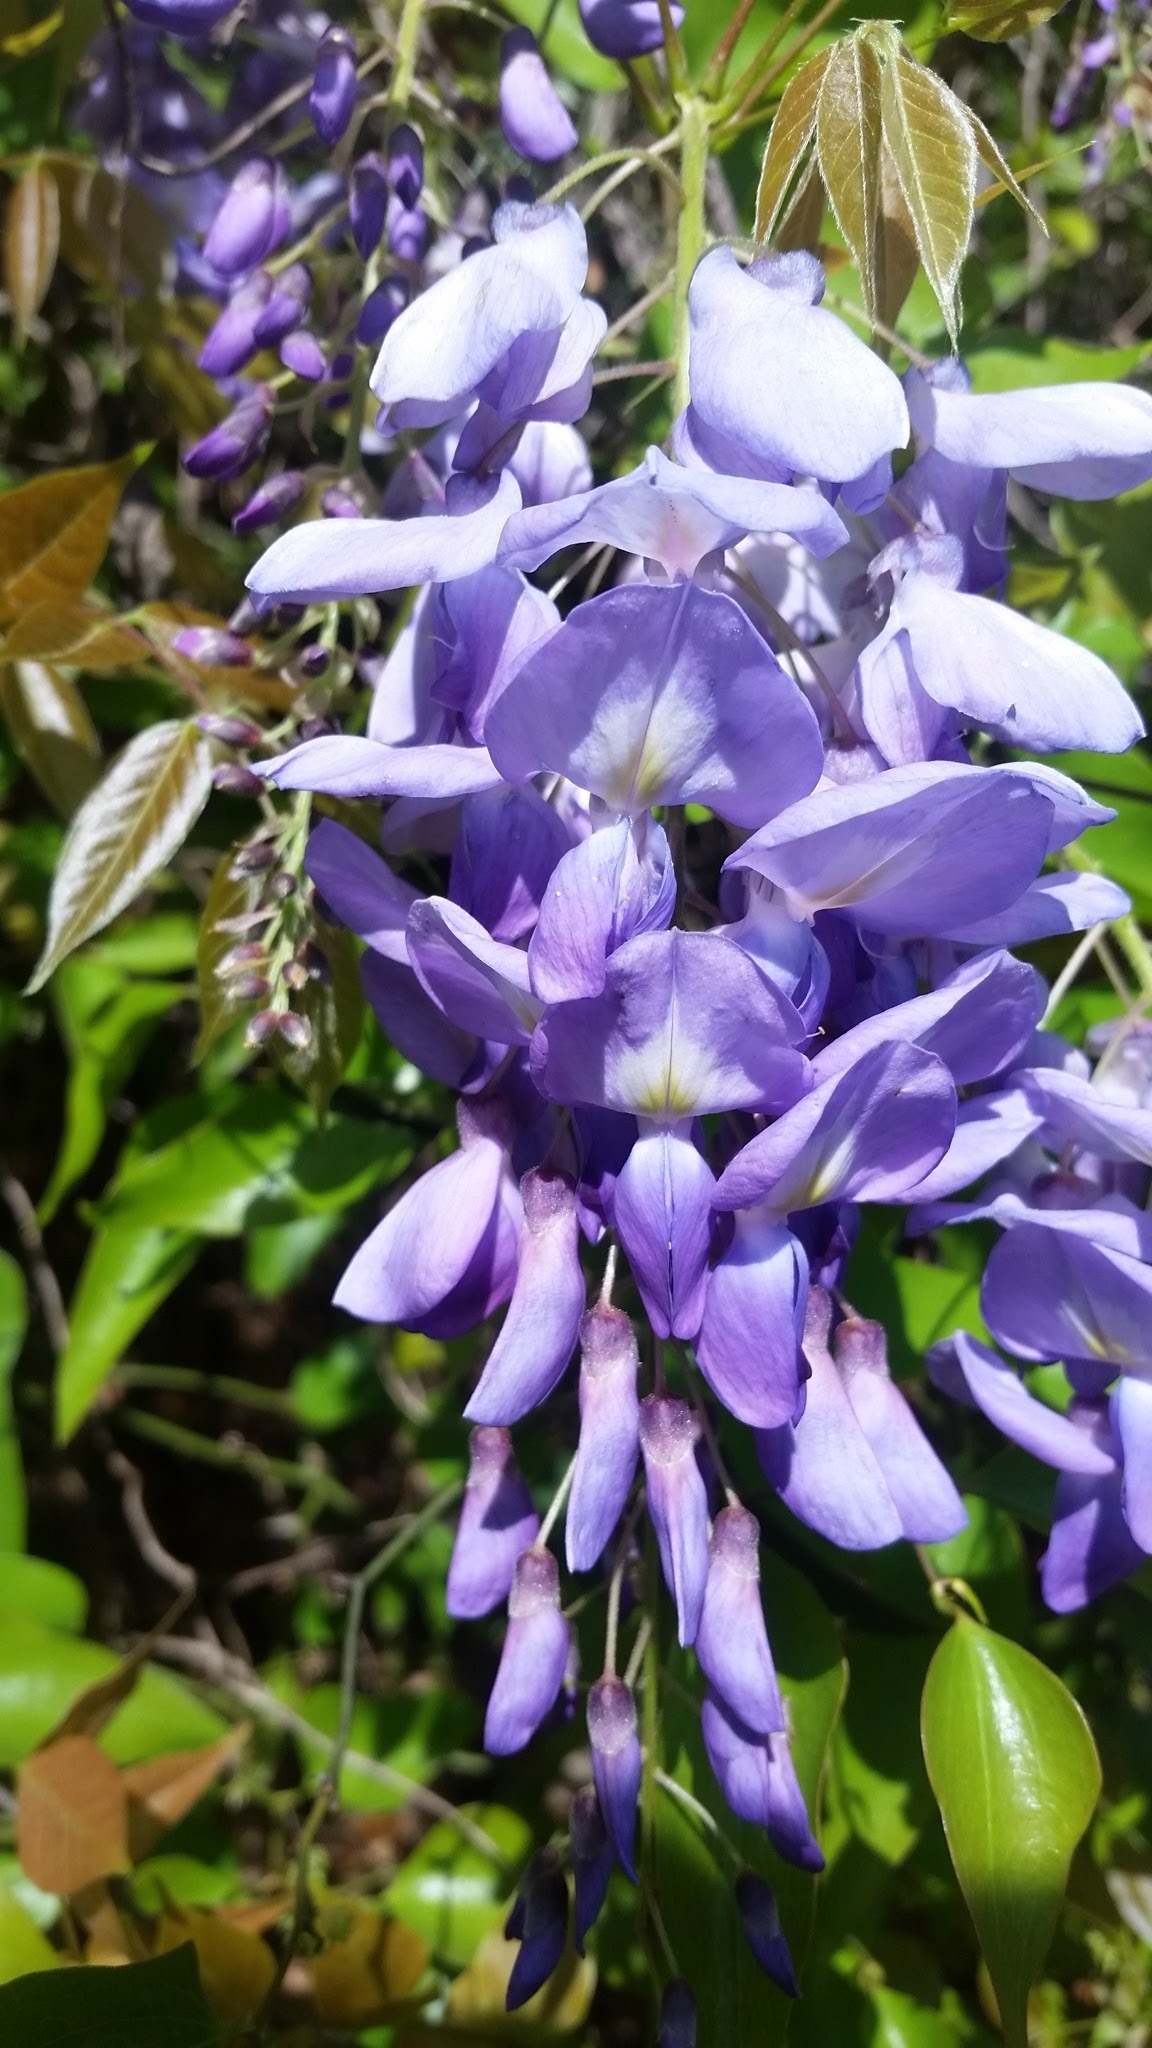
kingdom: Plantae
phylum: Tracheophyta
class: Magnoliopsida
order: Fabales
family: Fabaceae
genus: Wisteria
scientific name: Wisteria sinensis
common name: Chinese wisteria
